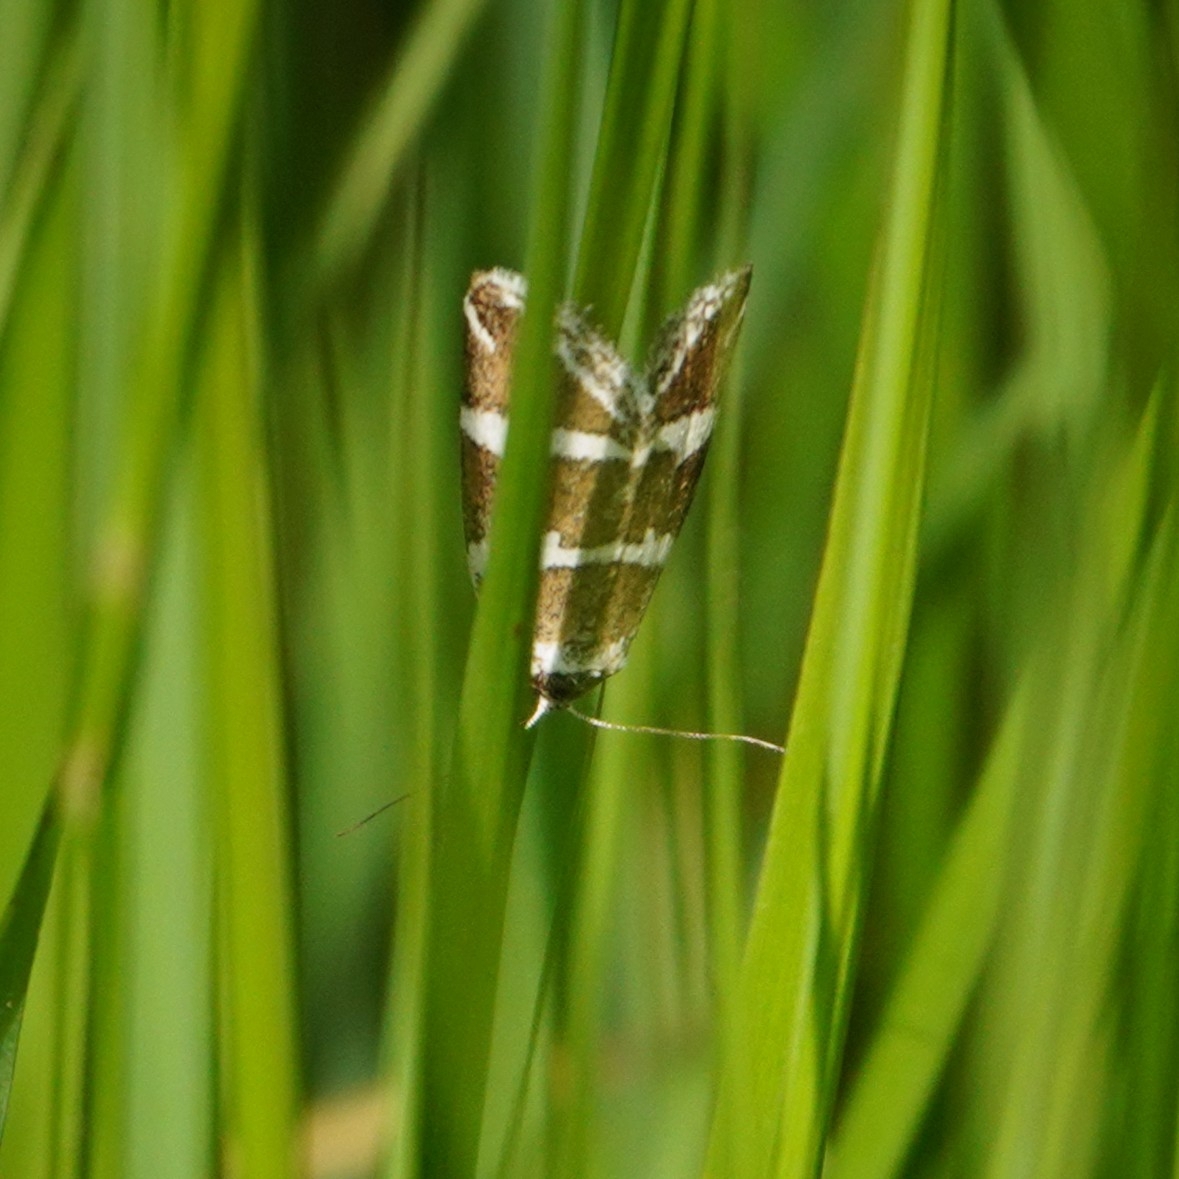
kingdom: Animalia
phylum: Arthropoda
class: Insecta
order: Lepidoptera
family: Noctuidae
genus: Deltote
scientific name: Deltote bankiana
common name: Silver barred
